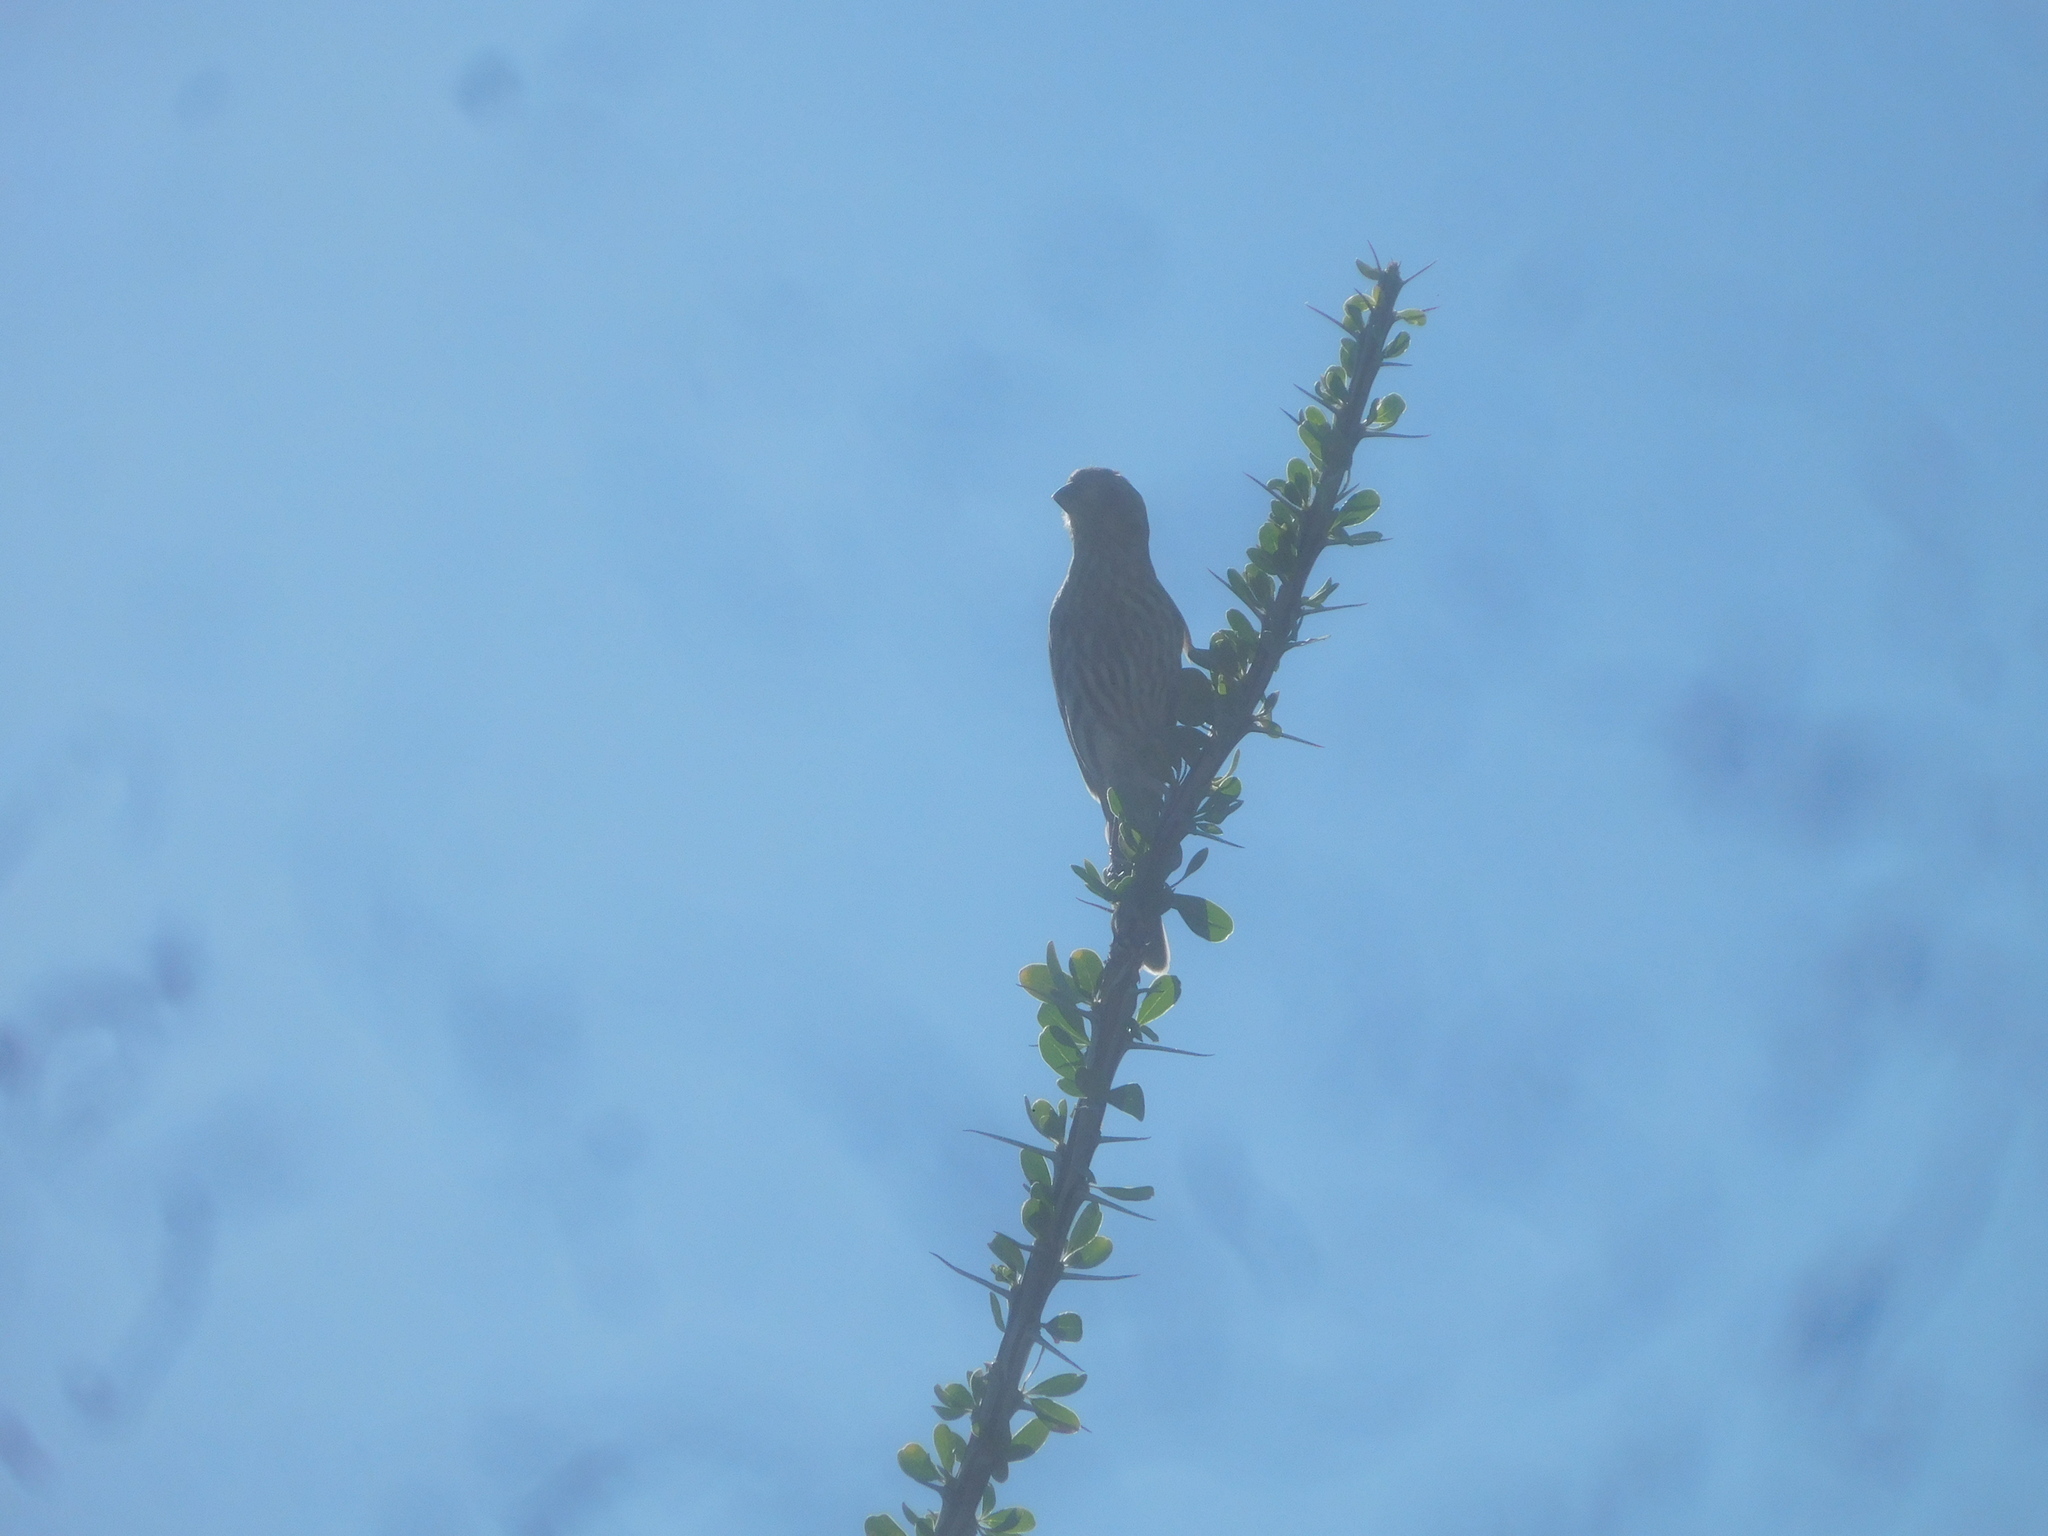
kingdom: Animalia
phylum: Chordata
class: Aves
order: Passeriformes
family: Fringillidae
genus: Haemorhous
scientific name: Haemorhous mexicanus
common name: House finch
